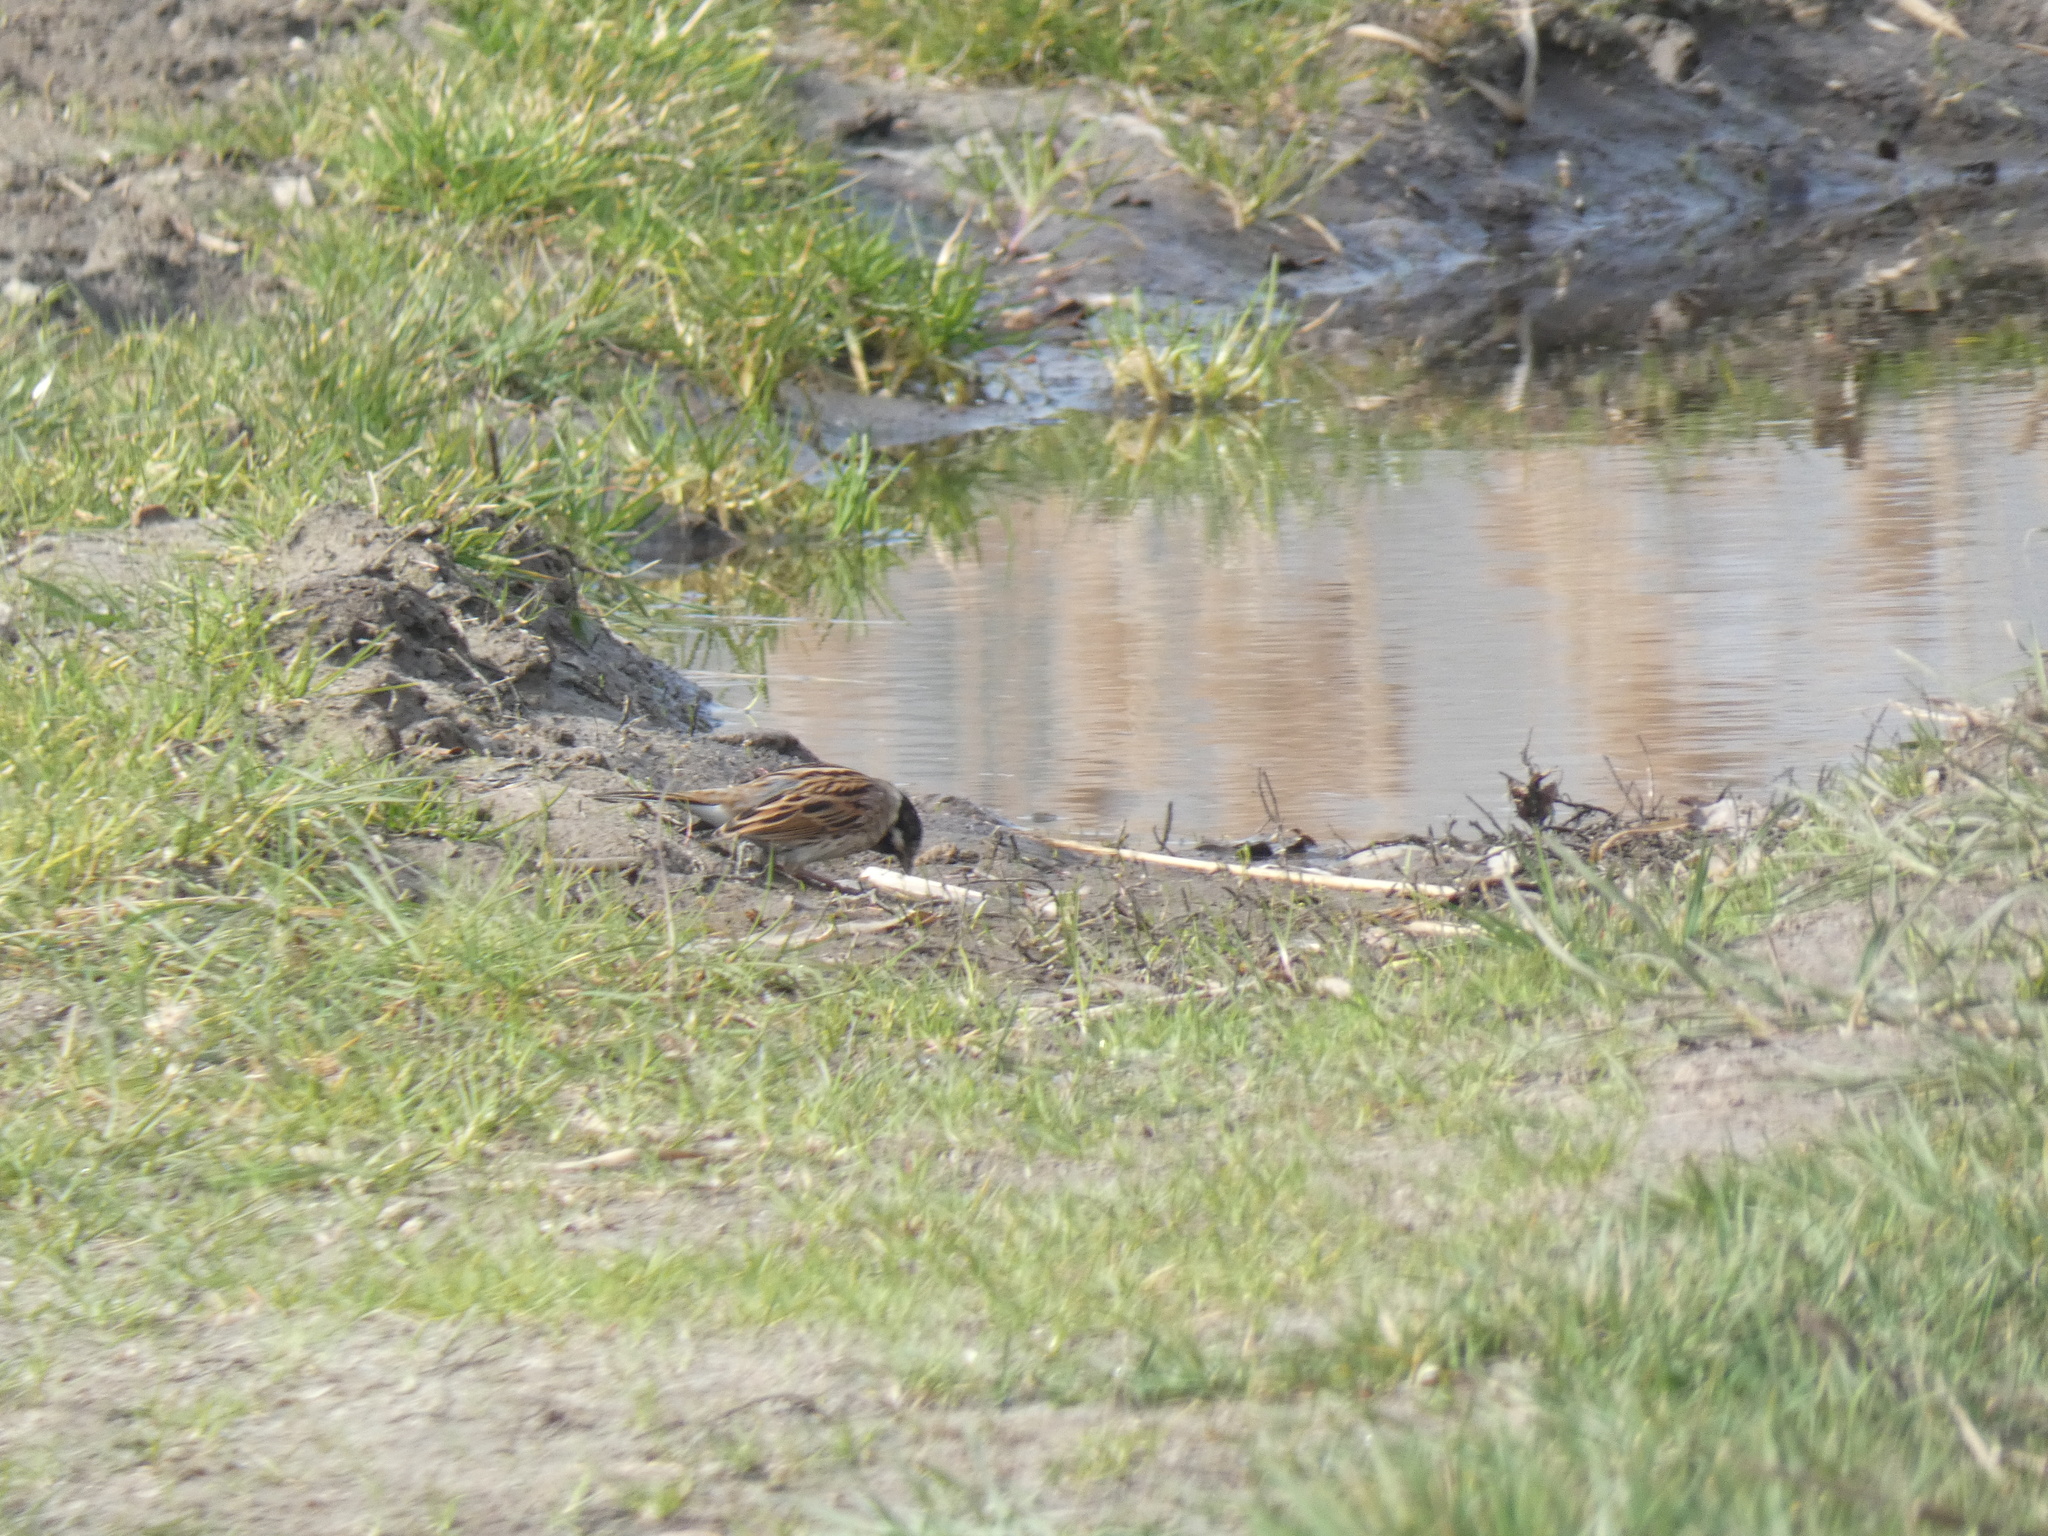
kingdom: Animalia
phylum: Chordata
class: Aves
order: Passeriformes
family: Emberizidae
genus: Emberiza
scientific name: Emberiza schoeniclus
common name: Reed bunting
